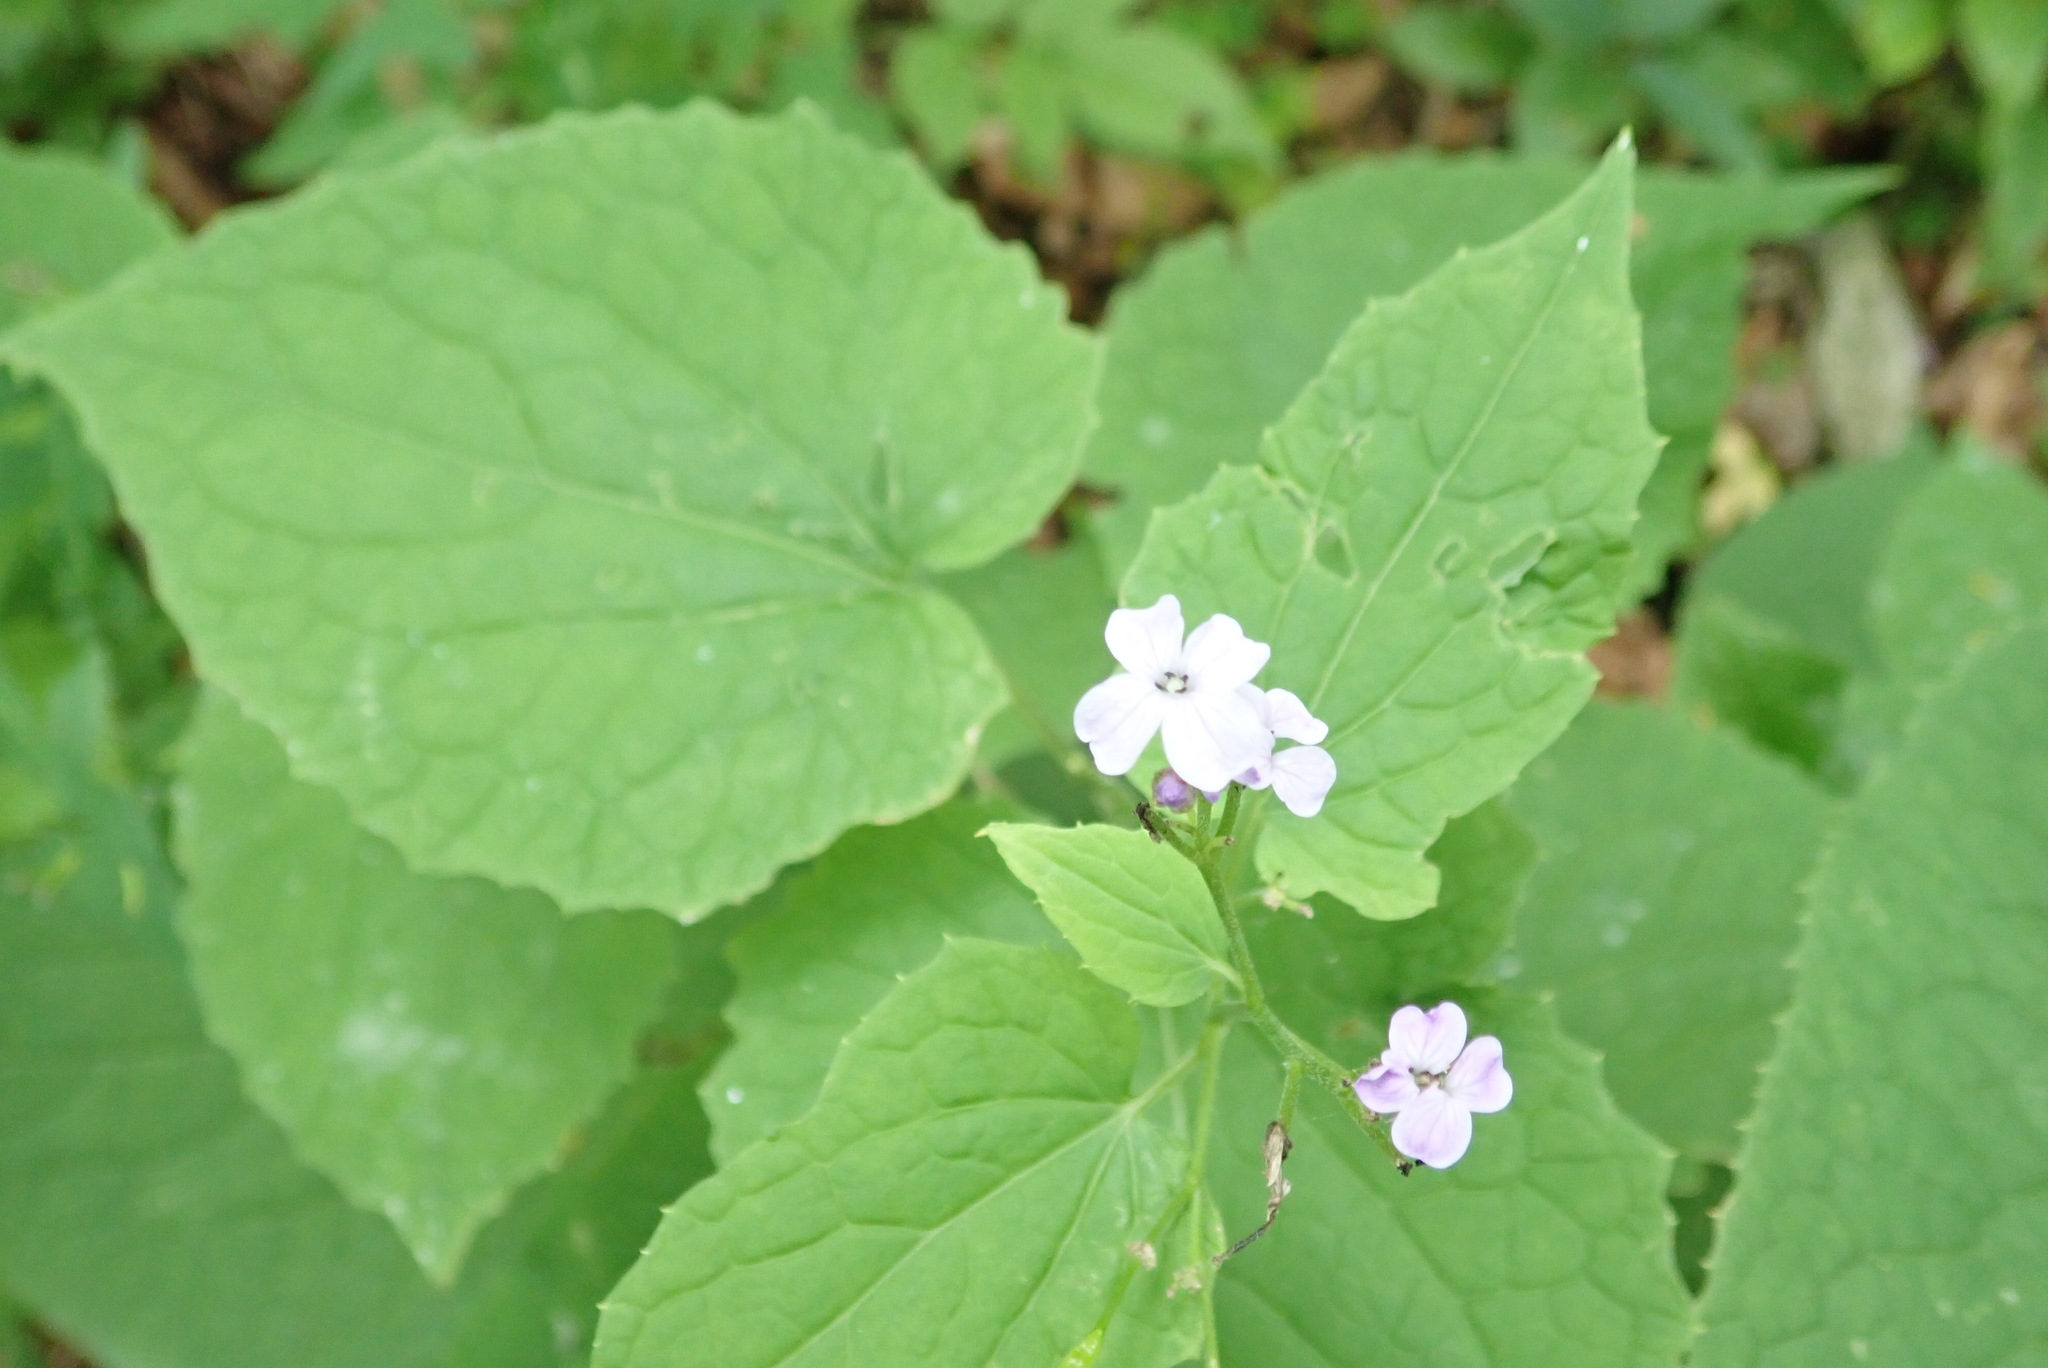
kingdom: Plantae
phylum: Tracheophyta
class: Magnoliopsida
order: Brassicales
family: Brassicaceae
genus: Lunaria
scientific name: Lunaria rediviva
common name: Perennial honesty
